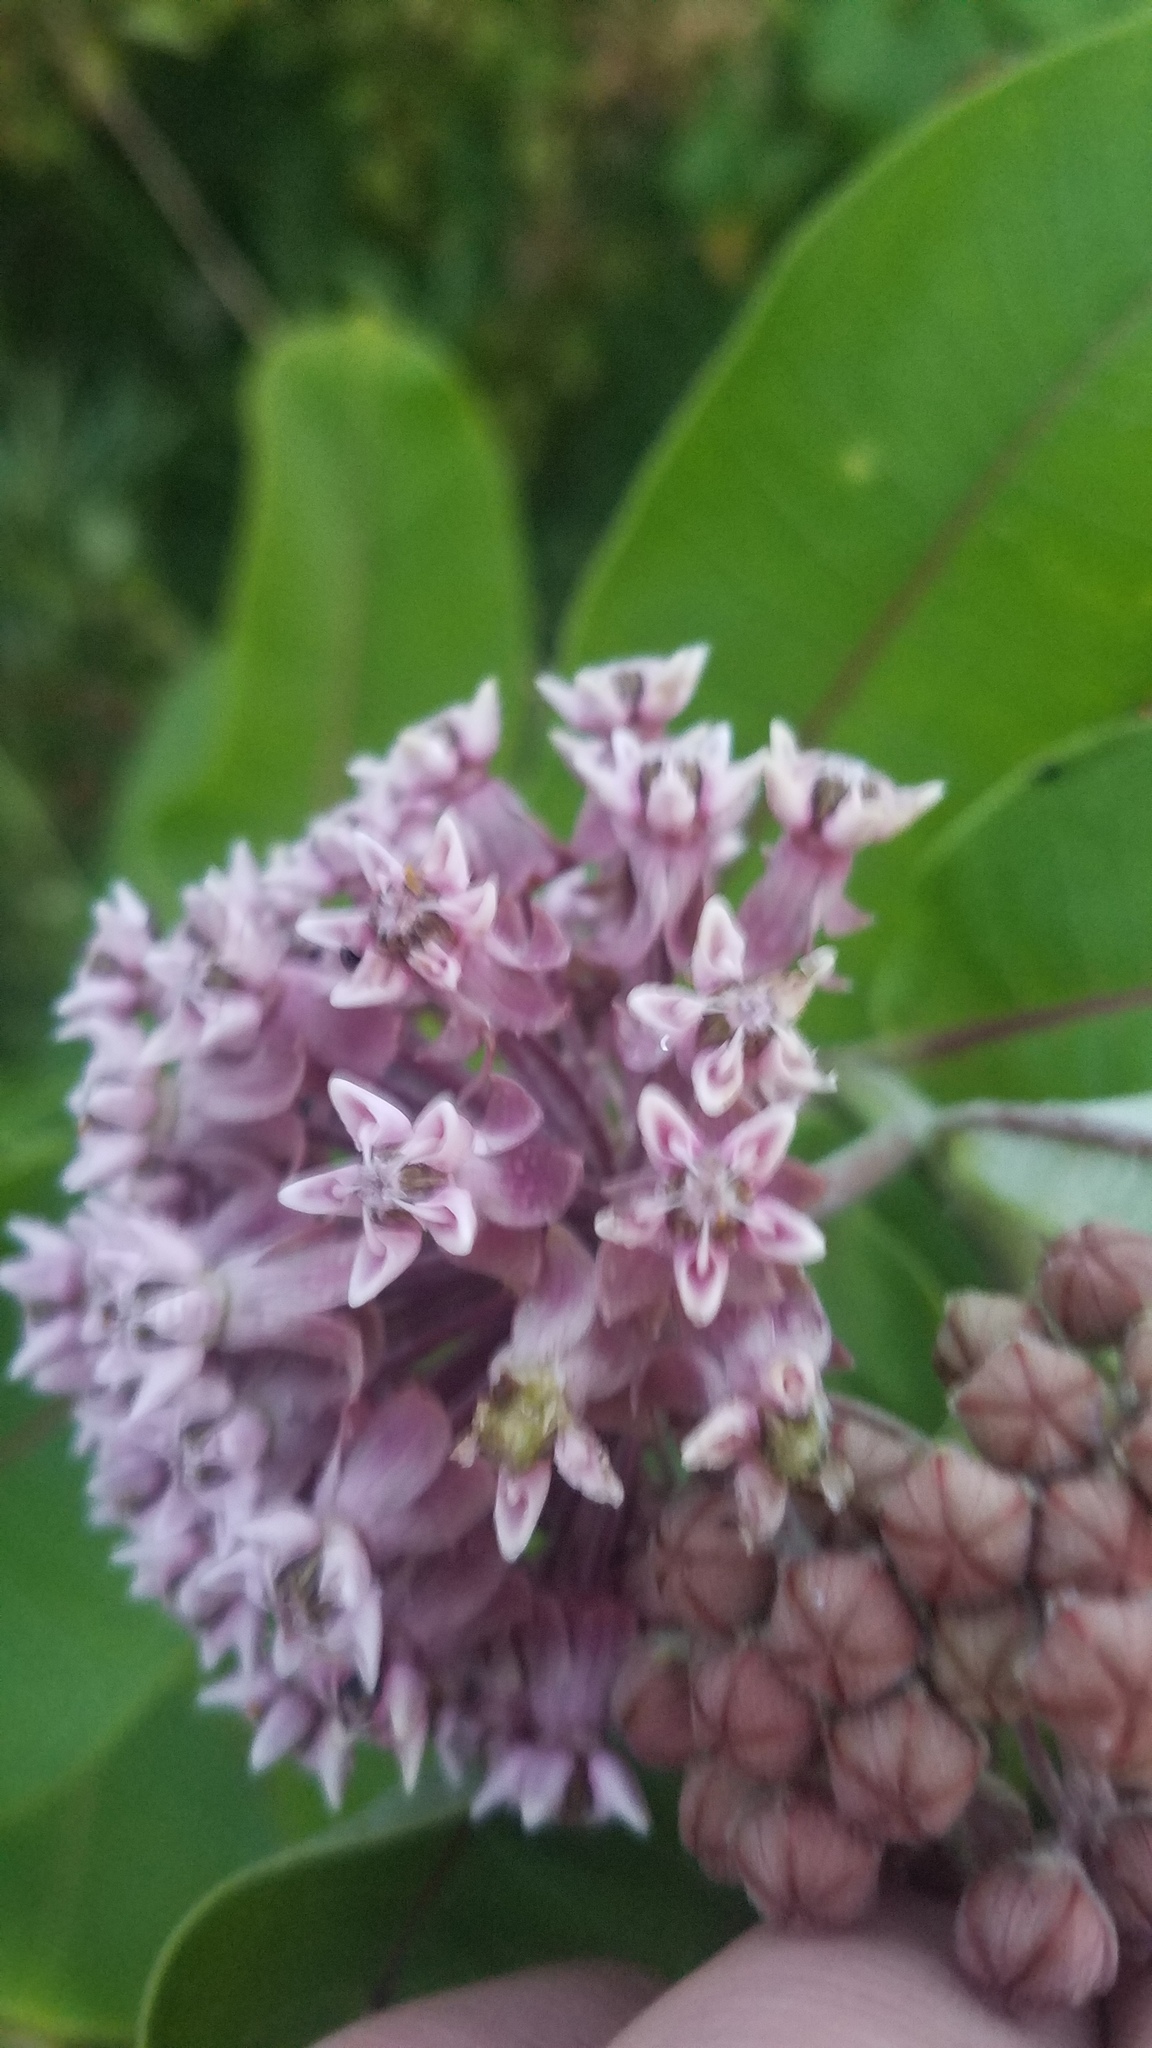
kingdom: Plantae
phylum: Tracheophyta
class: Magnoliopsida
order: Gentianales
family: Apocynaceae
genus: Asclepias
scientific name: Asclepias syriaca
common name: Common milkweed
